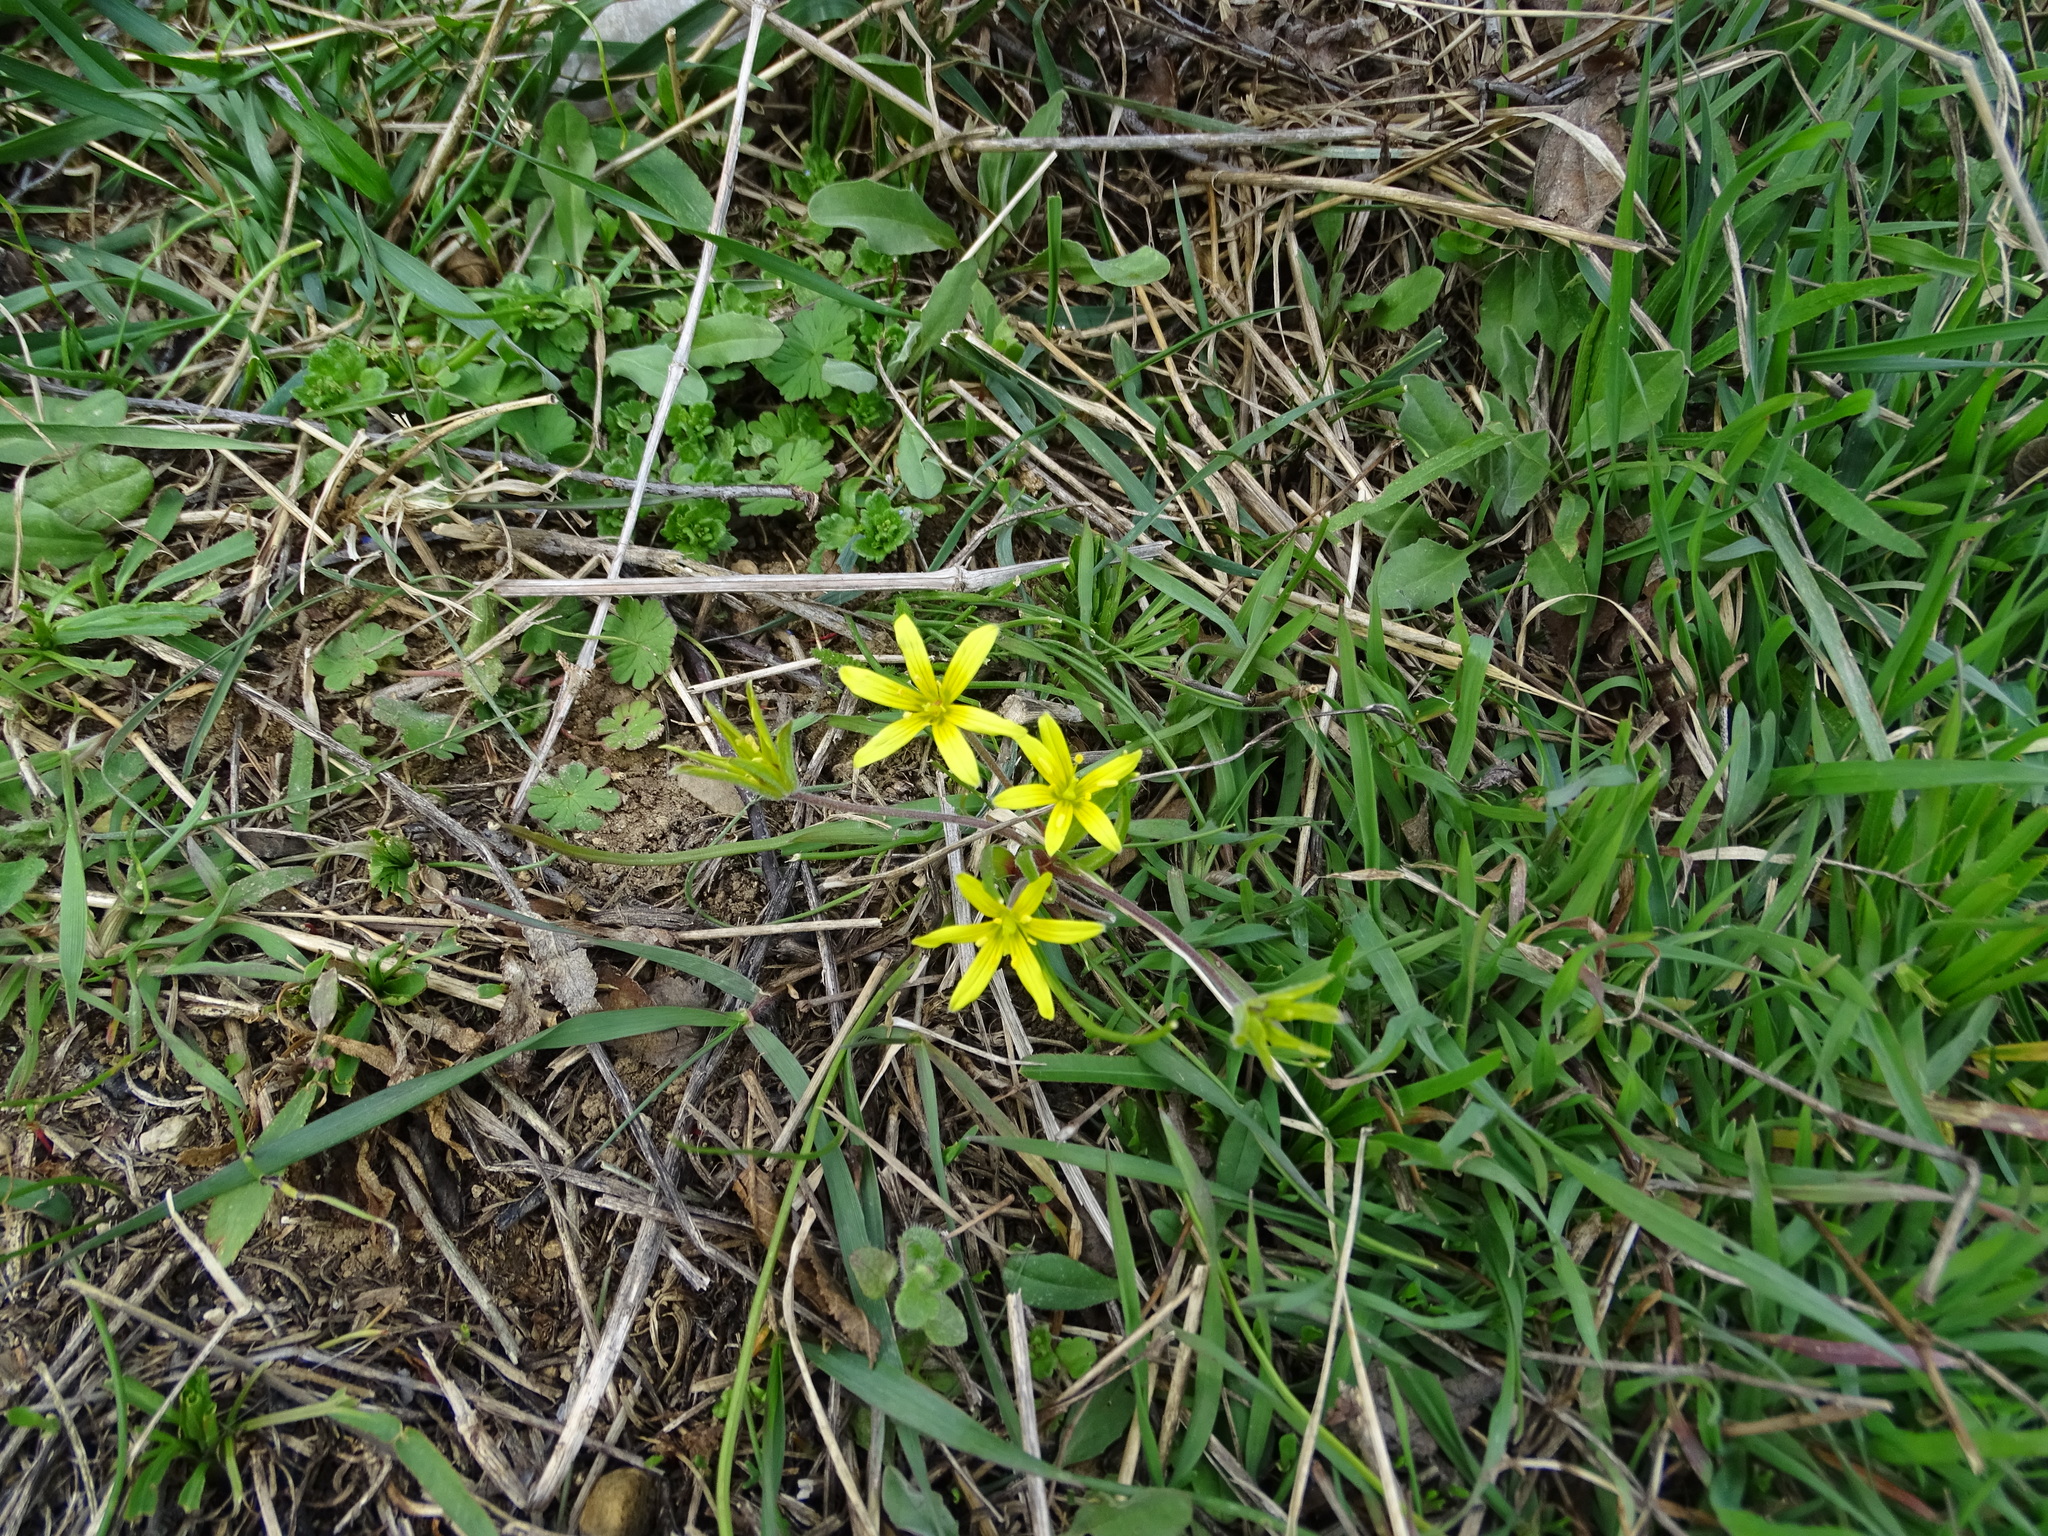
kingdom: Plantae
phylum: Tracheophyta
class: Liliopsida
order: Liliales
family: Liliaceae
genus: Gagea
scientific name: Gagea villosa
